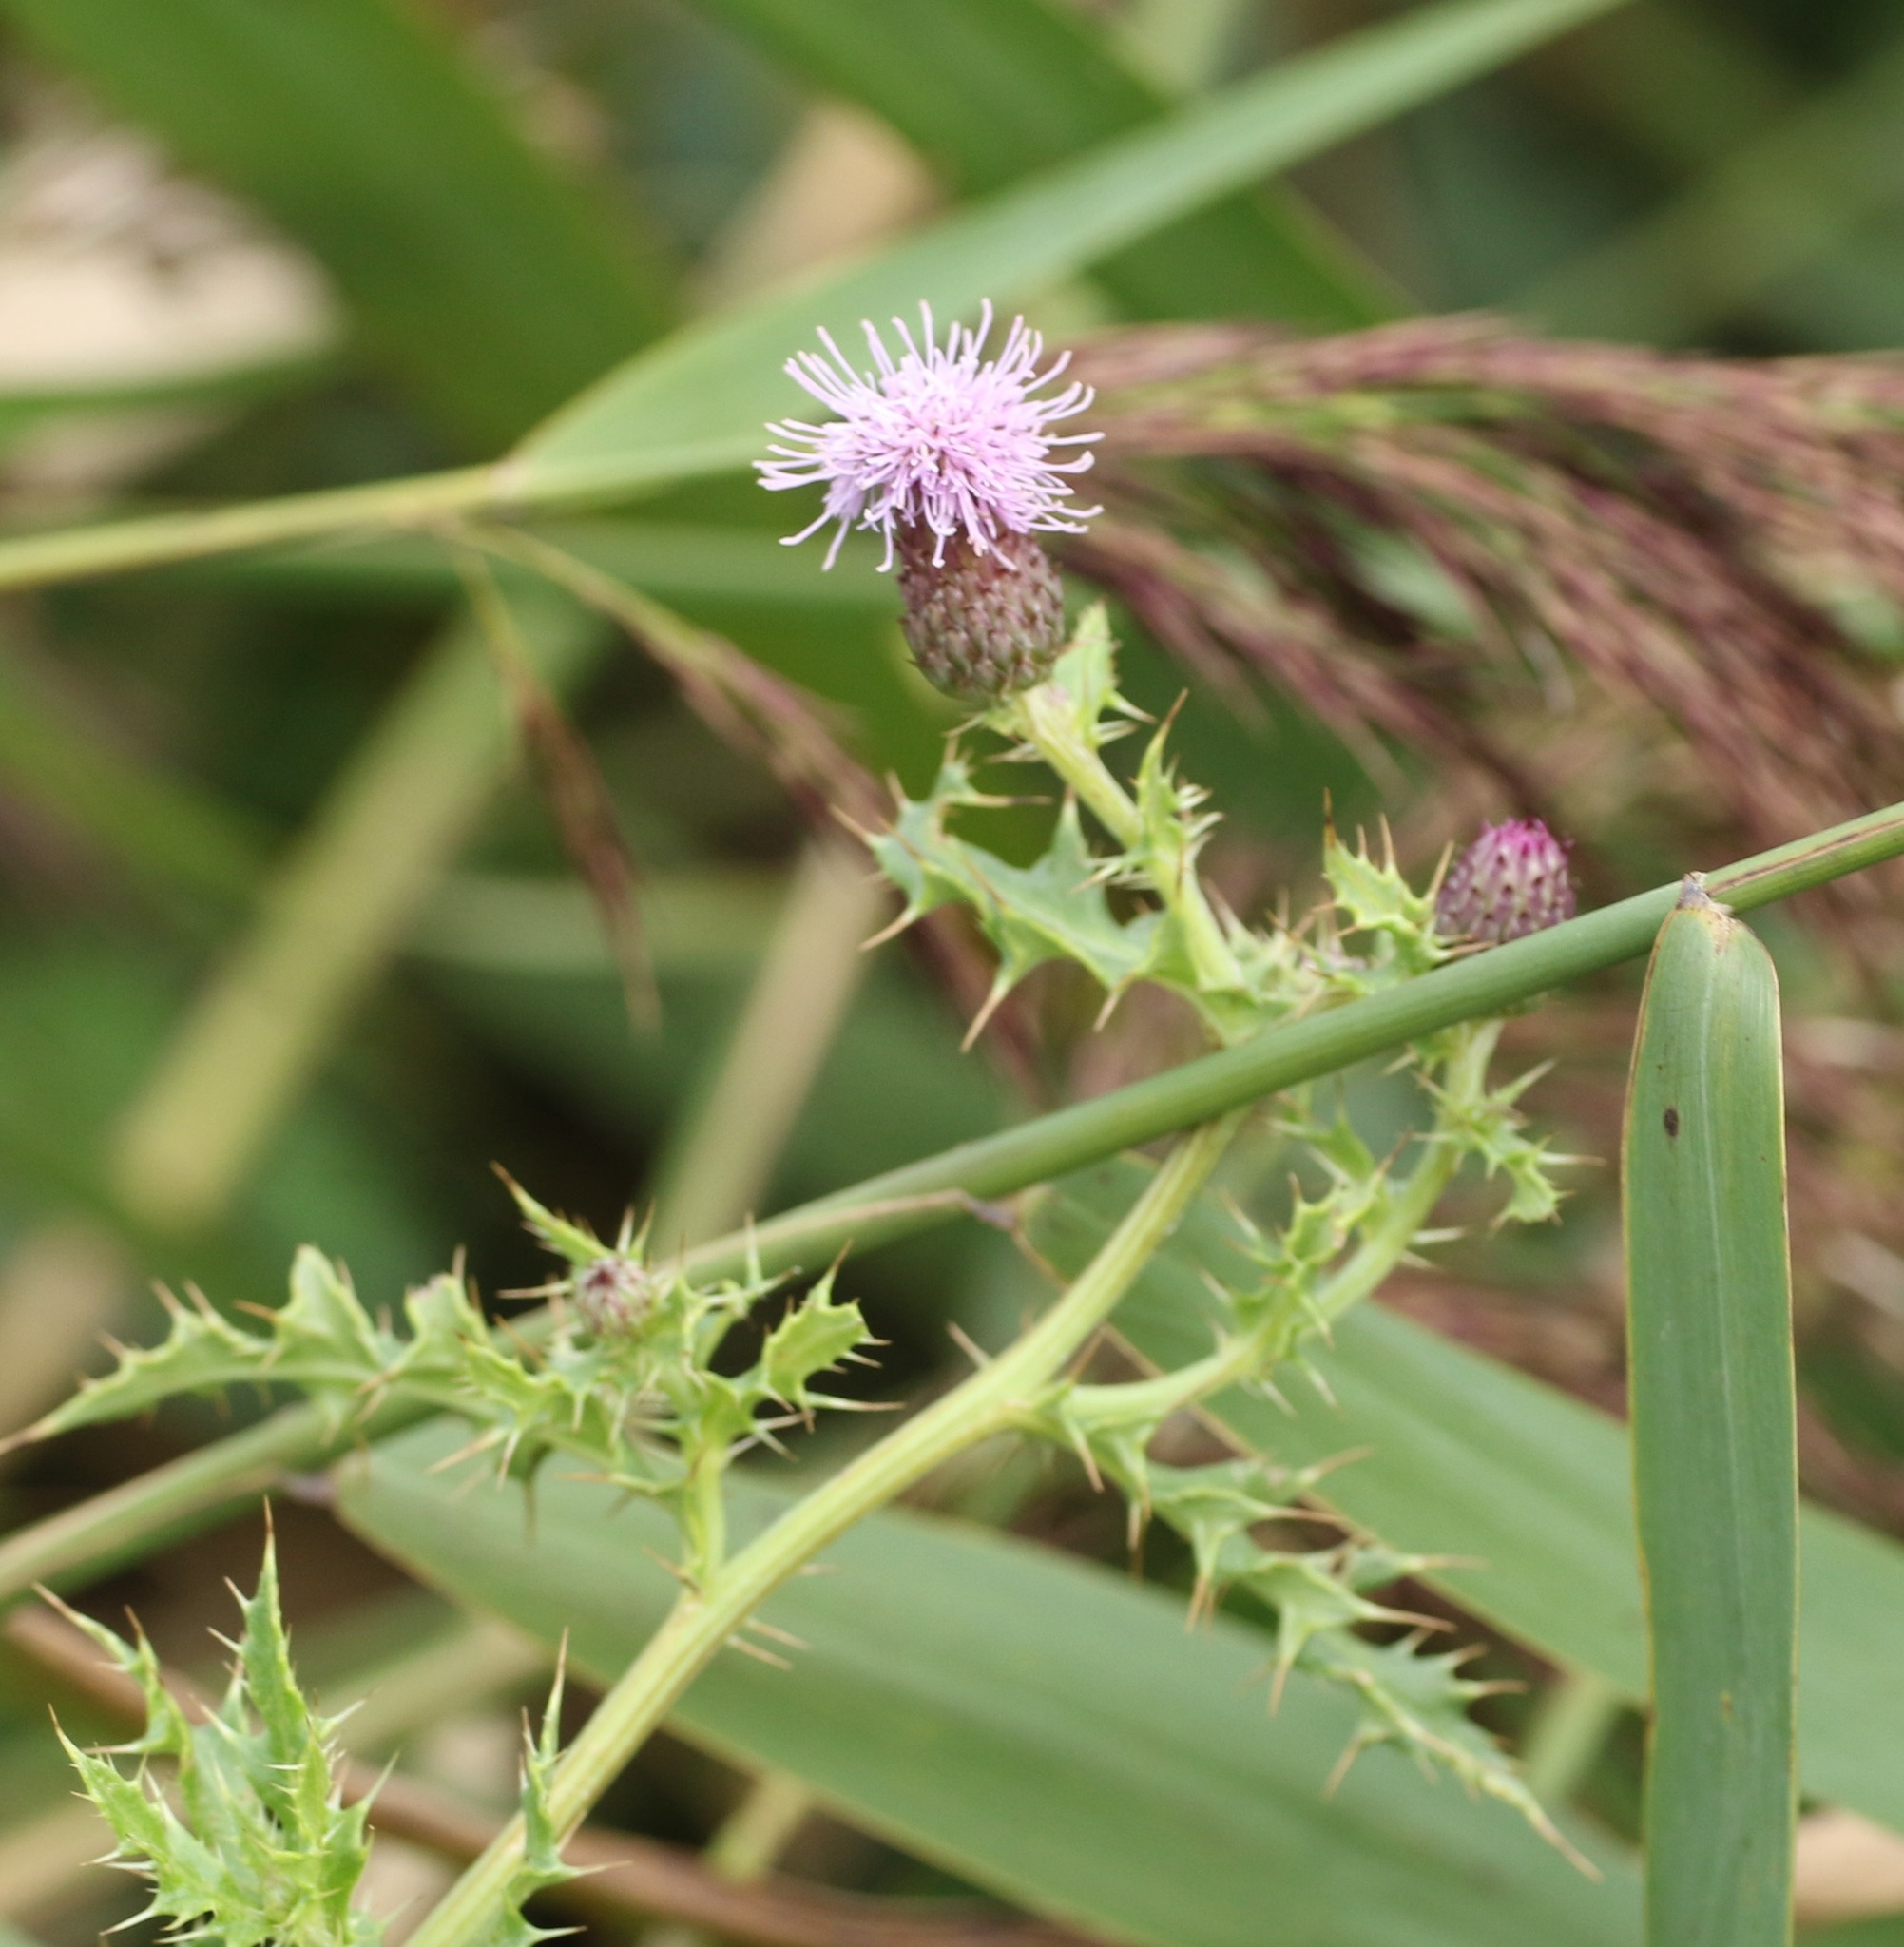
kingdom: Plantae
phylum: Tracheophyta
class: Magnoliopsida
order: Asterales
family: Asteraceae
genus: Cirsium
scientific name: Cirsium arvense
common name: Creeping thistle
